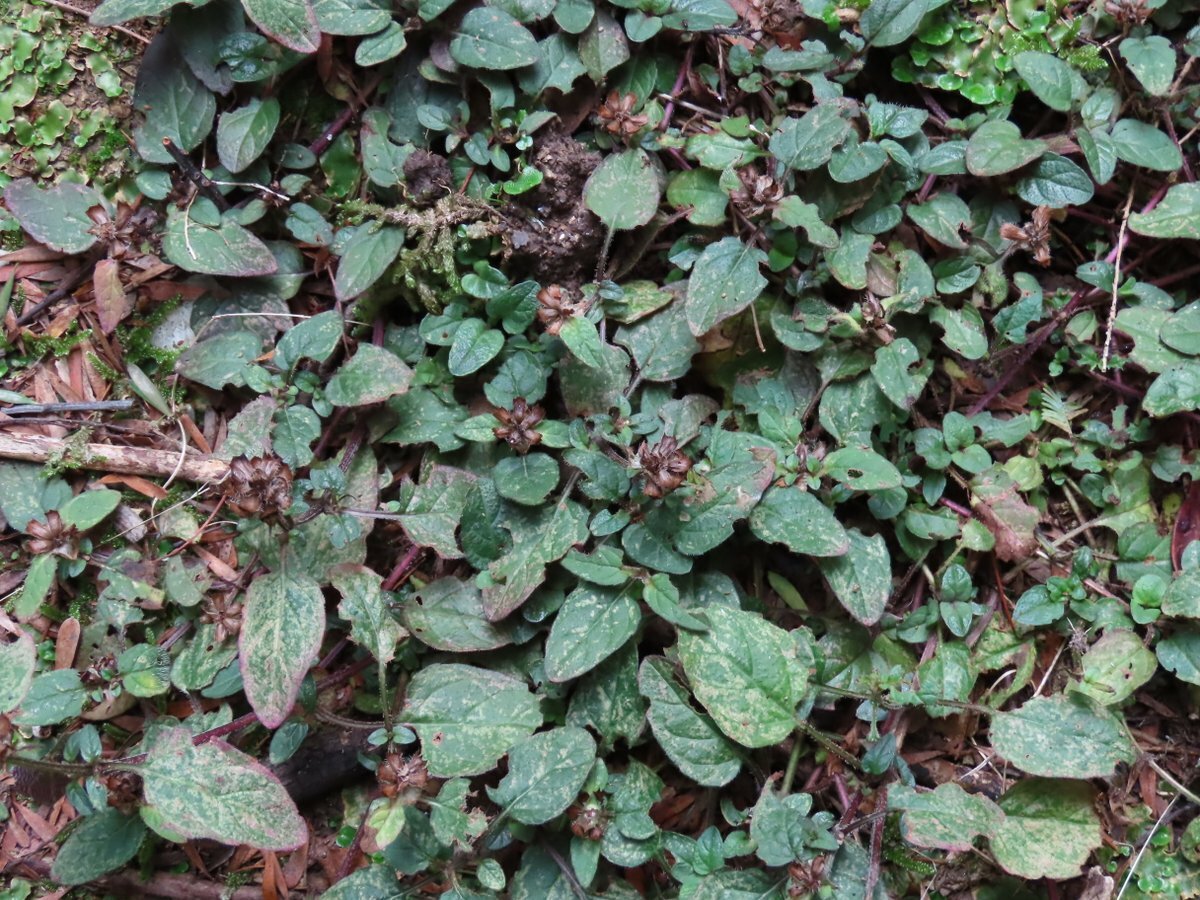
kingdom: Plantae
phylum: Tracheophyta
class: Magnoliopsida
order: Lamiales
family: Lamiaceae
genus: Prunella
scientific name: Prunella vulgaris
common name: Heal-all
